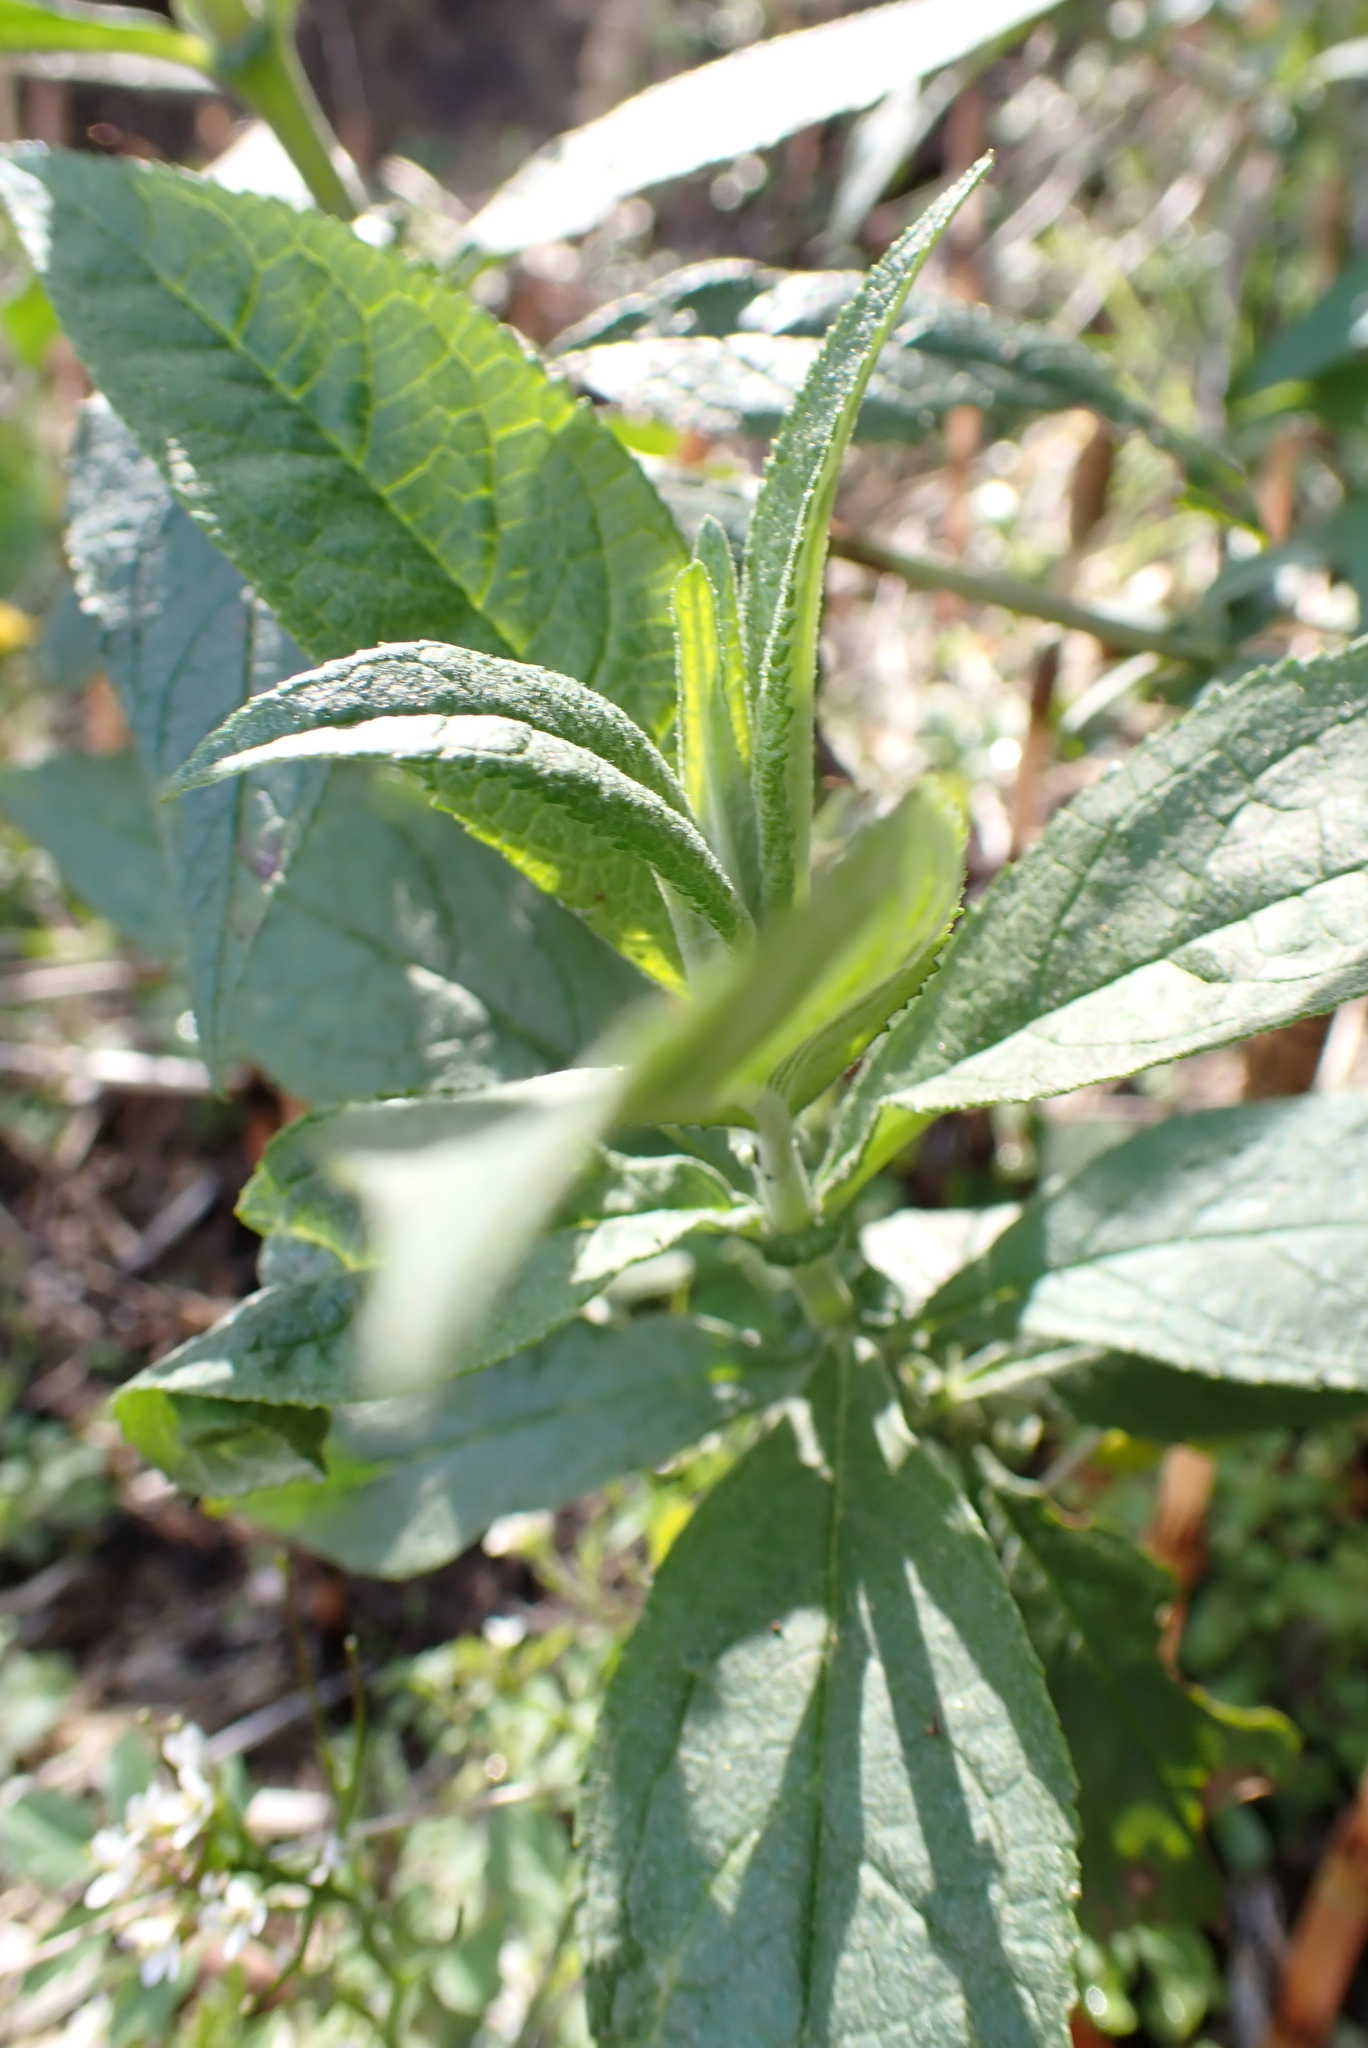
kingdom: Plantae
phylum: Tracheophyta
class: Magnoliopsida
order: Lamiales
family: Scrophulariaceae
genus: Buddleja
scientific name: Buddleja davidii
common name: Butterfly-bush
